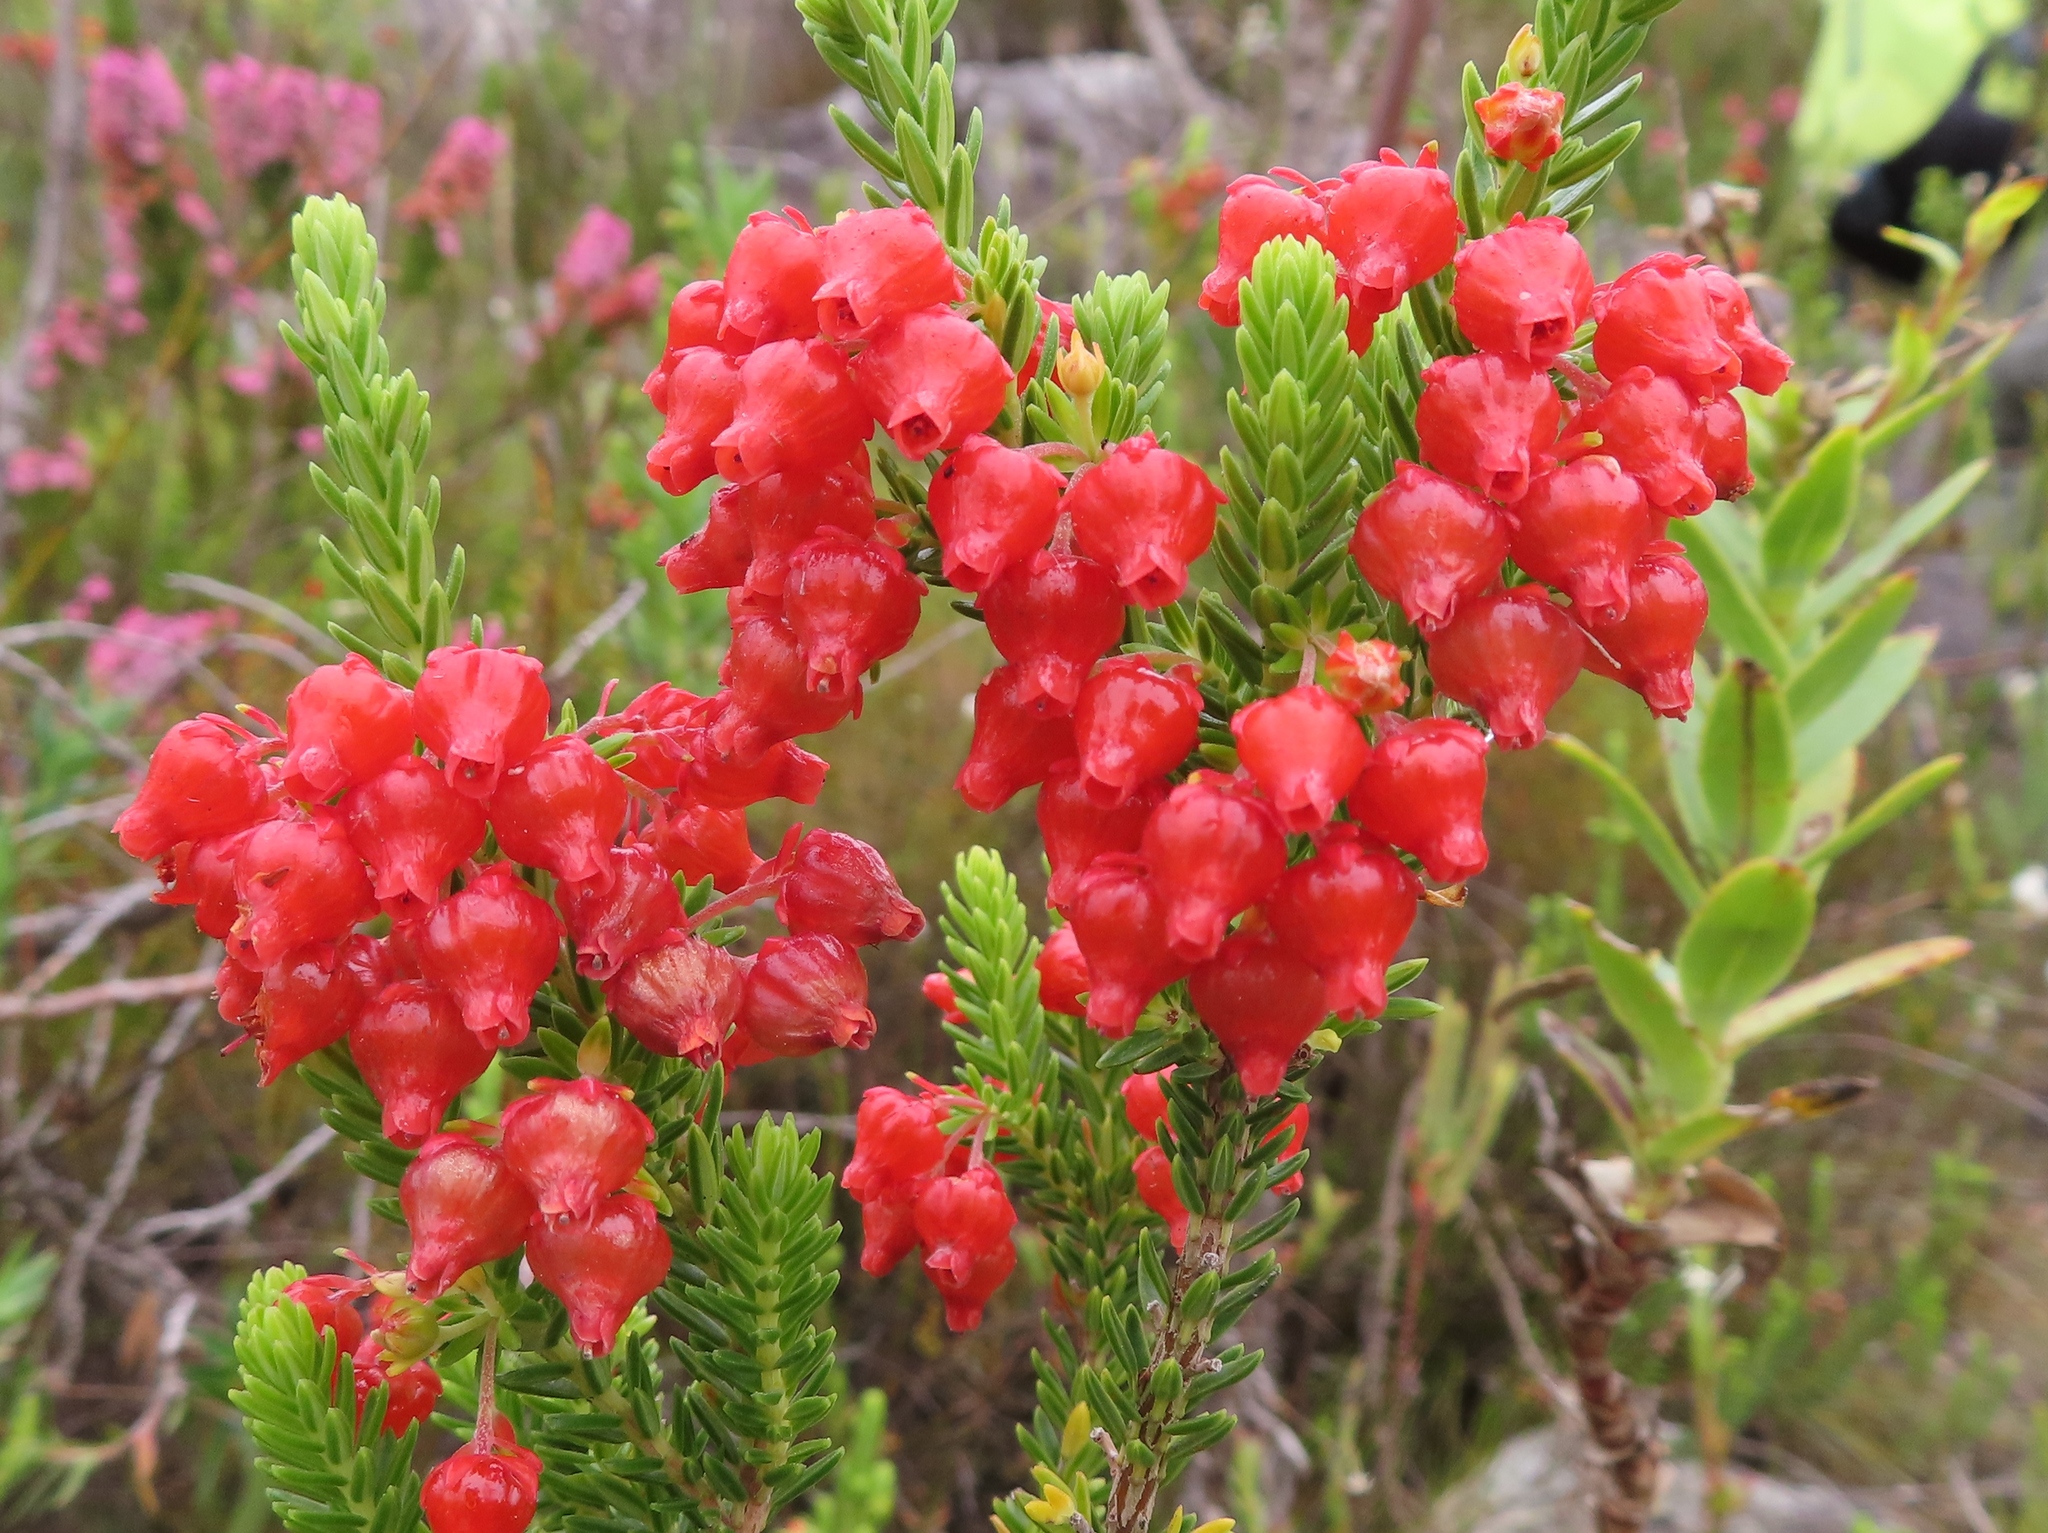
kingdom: Plantae
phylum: Tracheophyta
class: Magnoliopsida
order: Ericales
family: Ericaceae
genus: Erica
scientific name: Erica ardens
